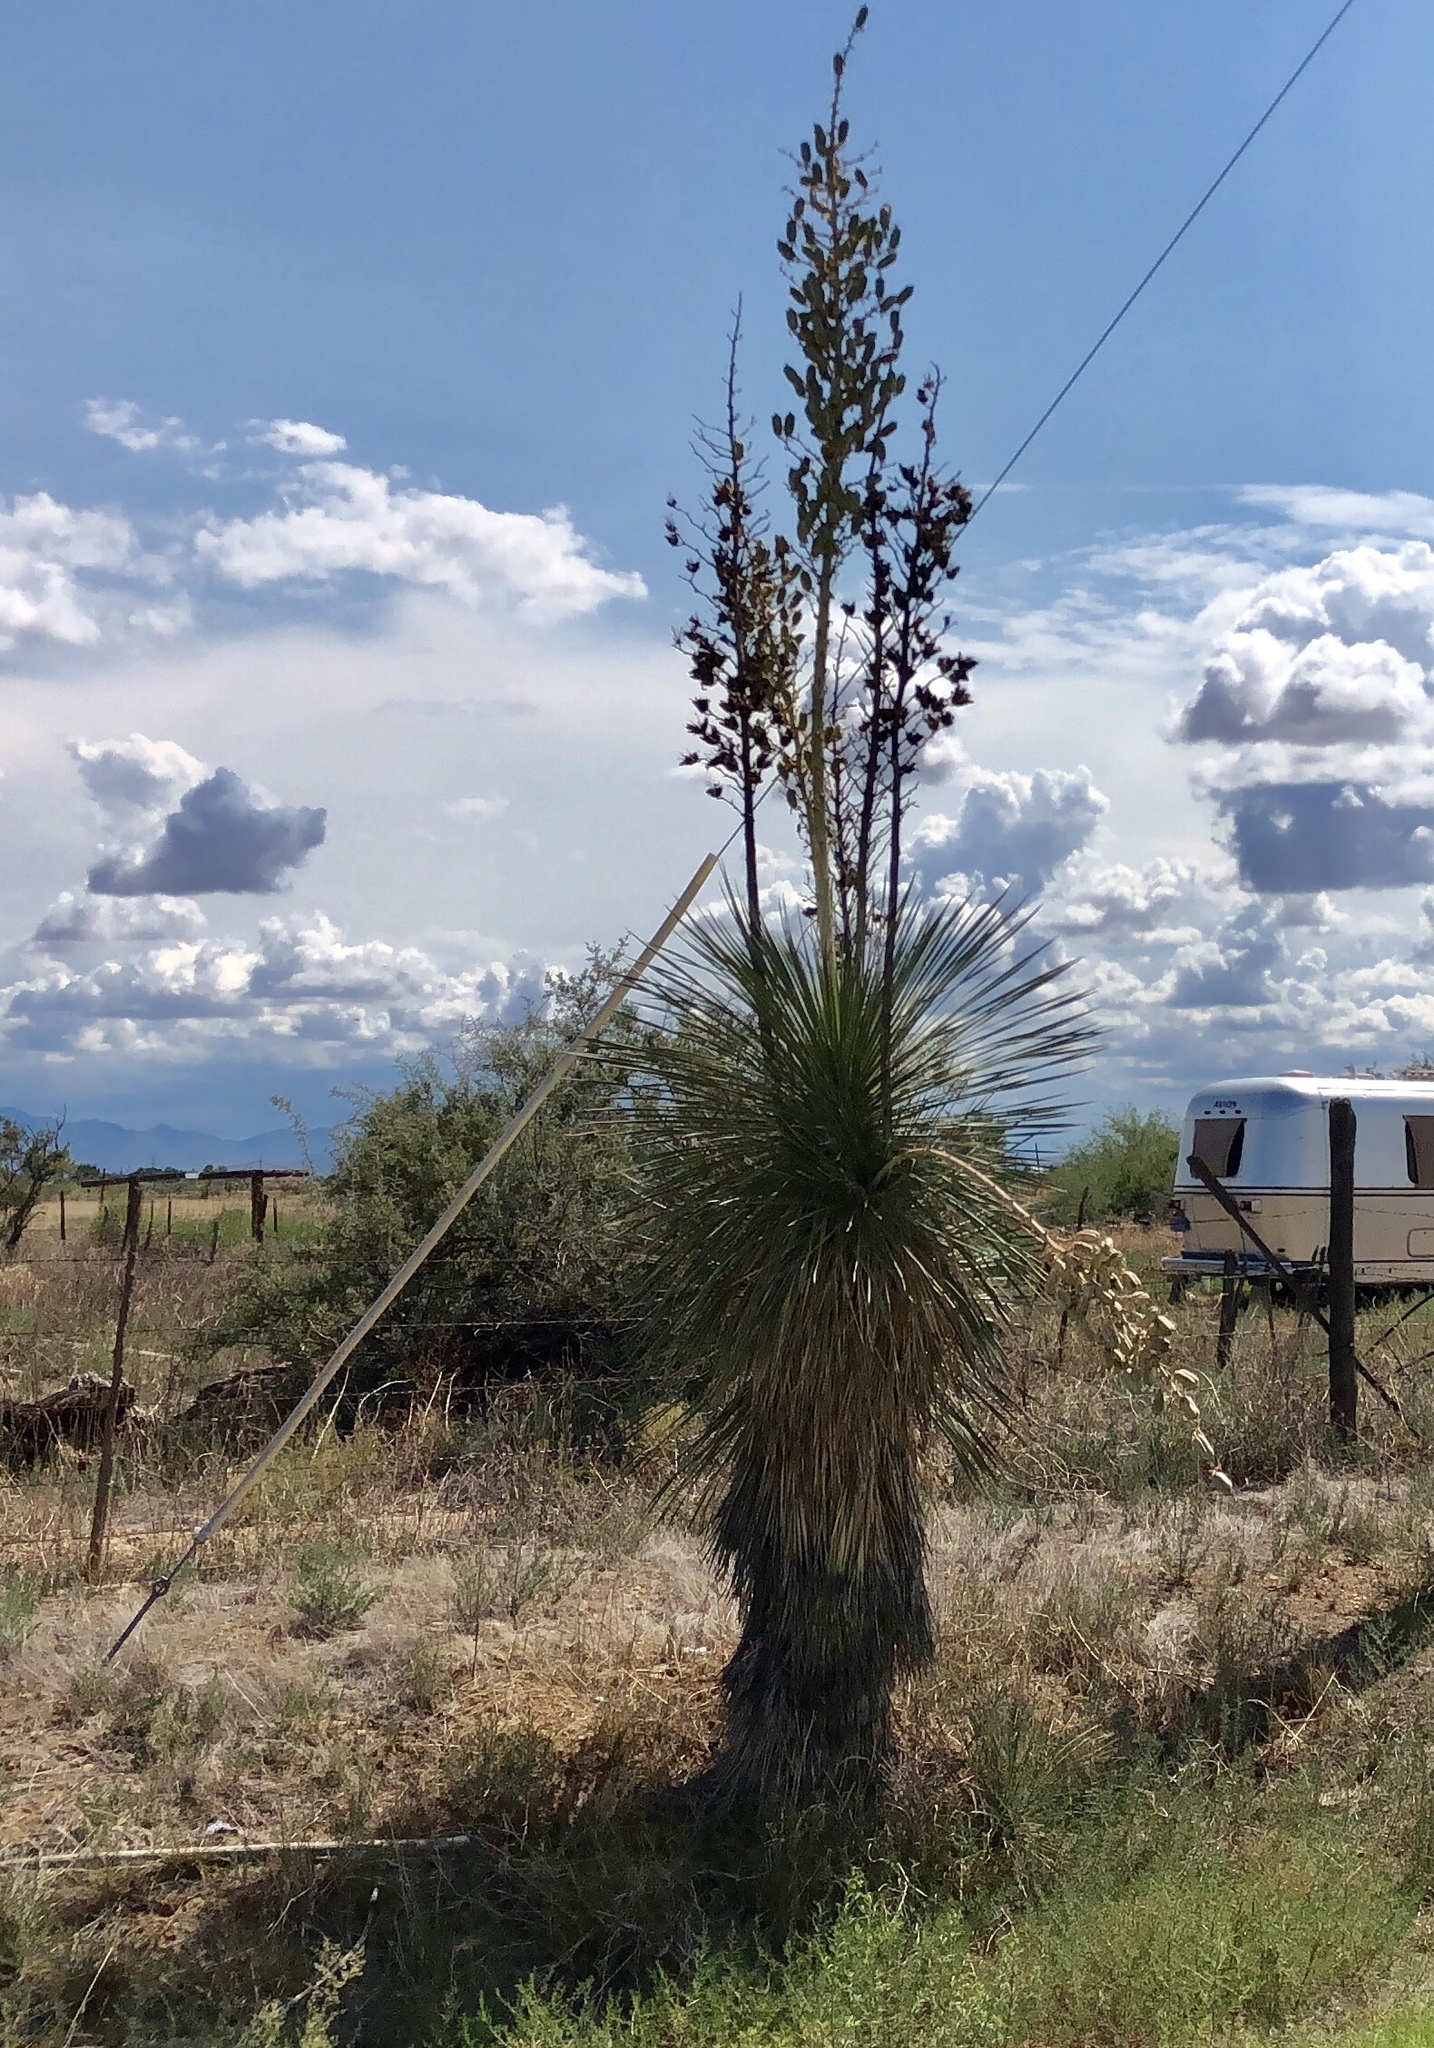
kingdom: Plantae
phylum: Tracheophyta
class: Liliopsida
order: Asparagales
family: Asparagaceae
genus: Yucca
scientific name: Yucca elata
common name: Palmella
